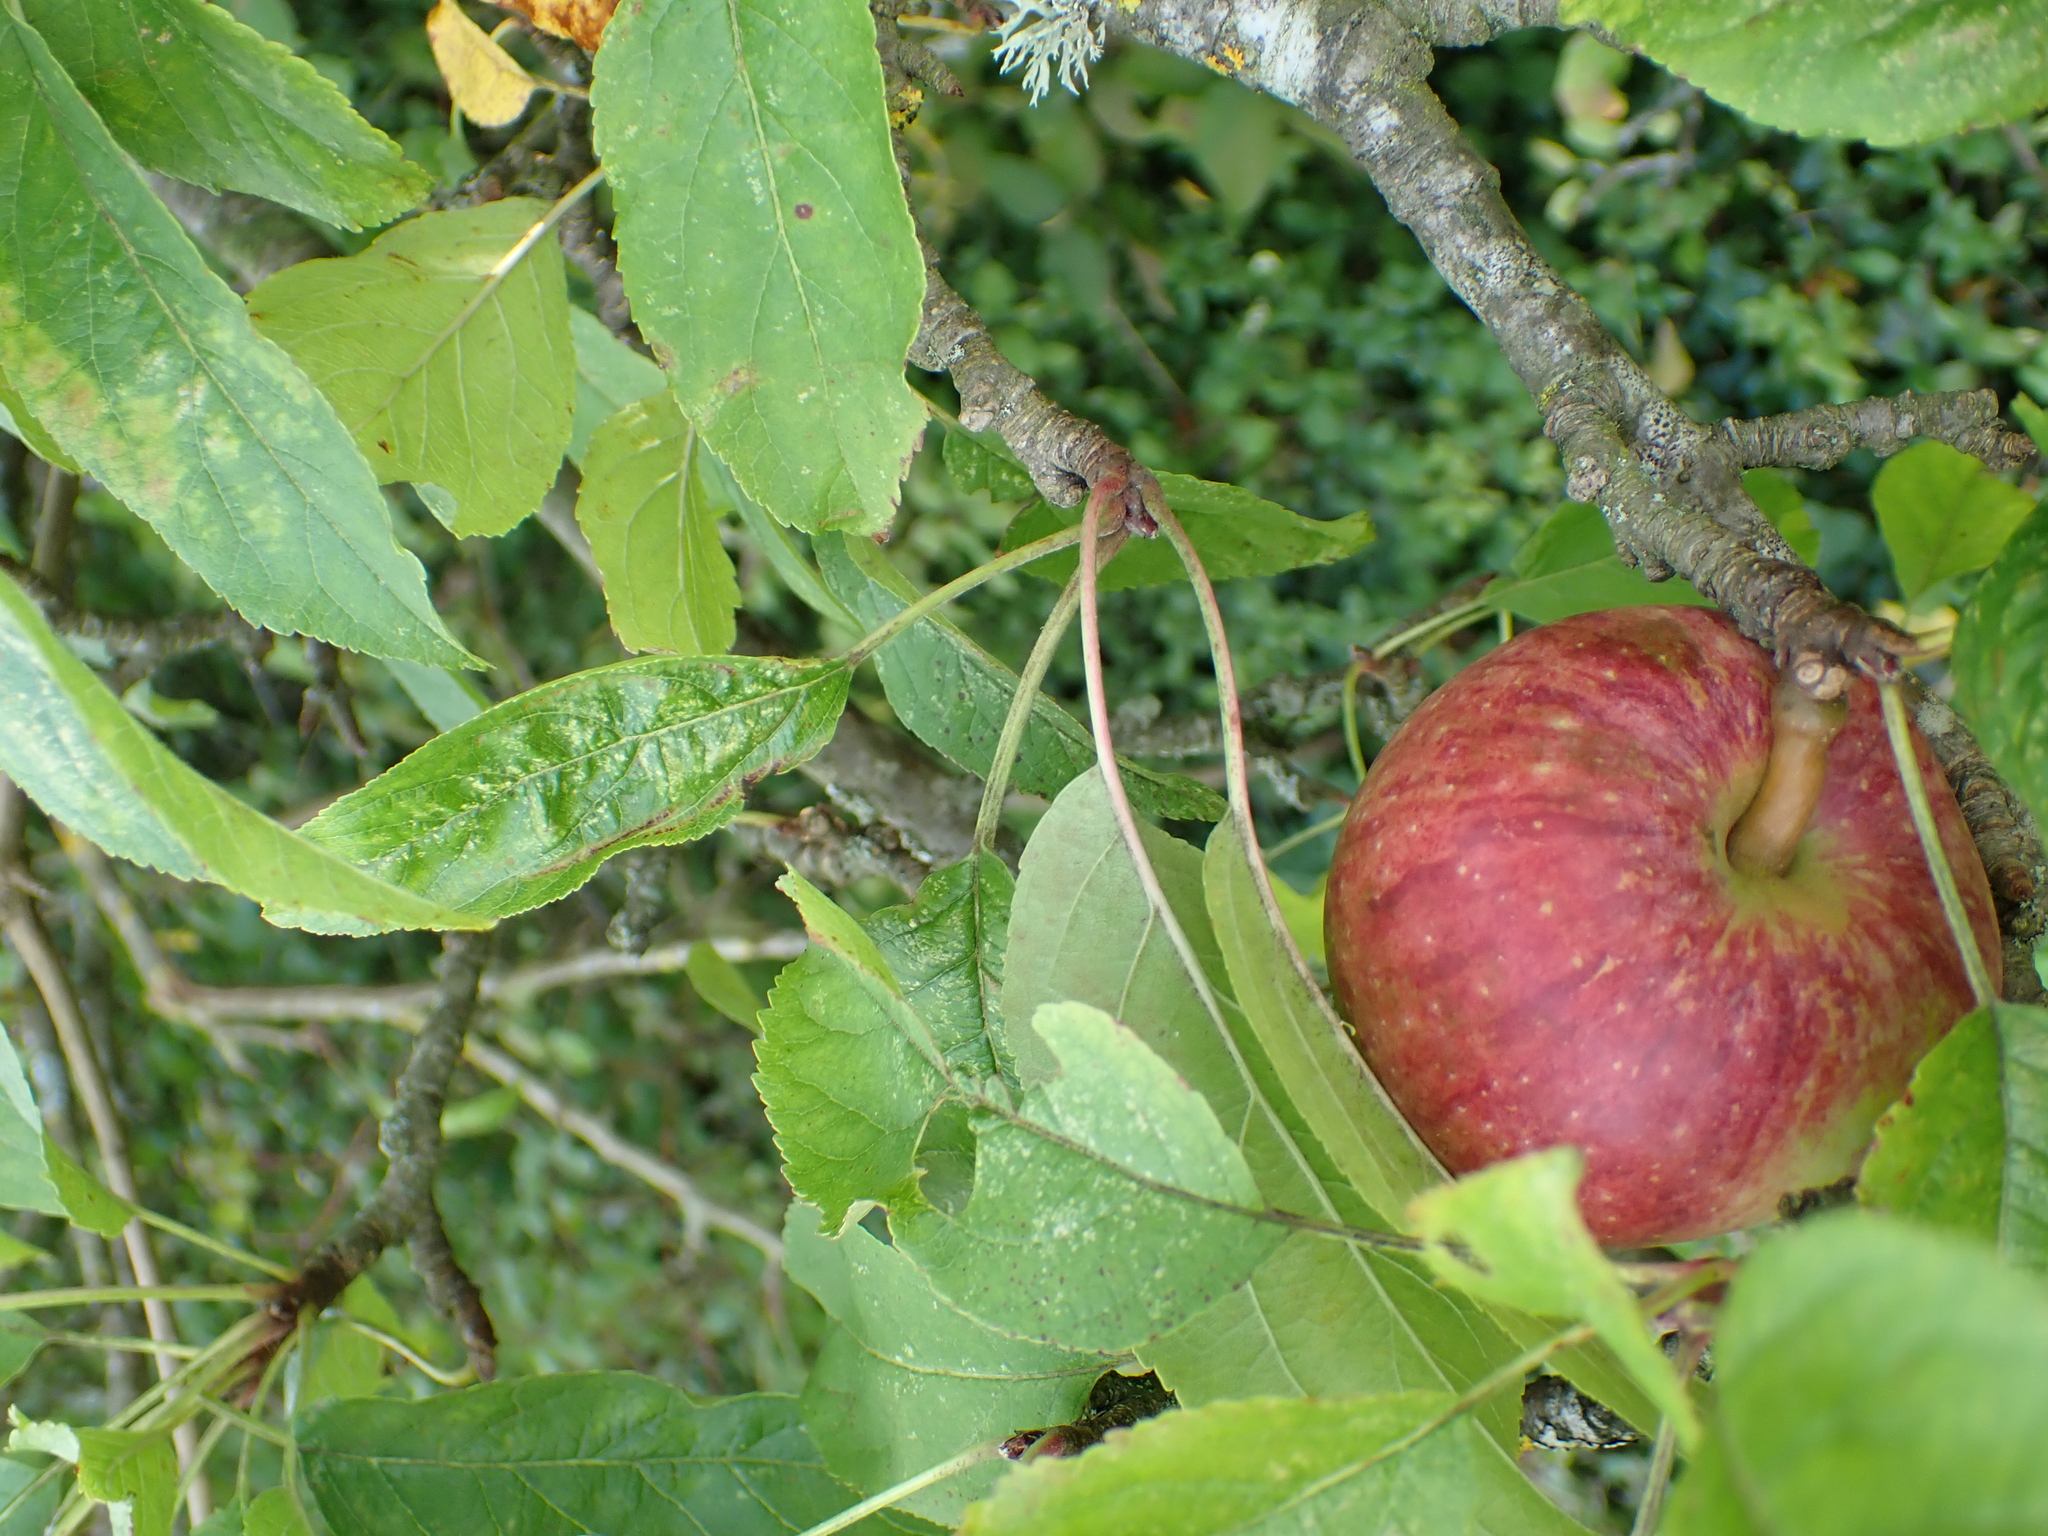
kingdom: Plantae
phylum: Tracheophyta
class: Magnoliopsida
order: Rosales
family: Rosaceae
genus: Malus
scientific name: Malus domestica
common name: Apple
